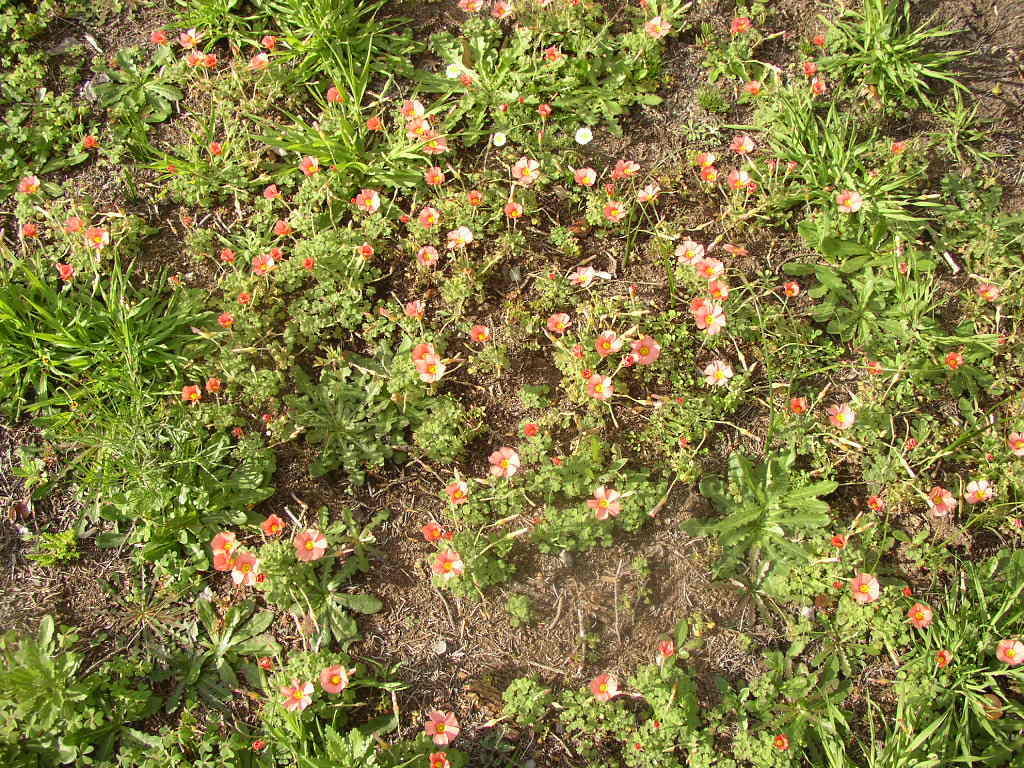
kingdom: Plantae
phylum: Tracheophyta
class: Magnoliopsida
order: Oxalidales
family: Oxalidaceae
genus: Oxalis
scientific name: Oxalis obtusa
